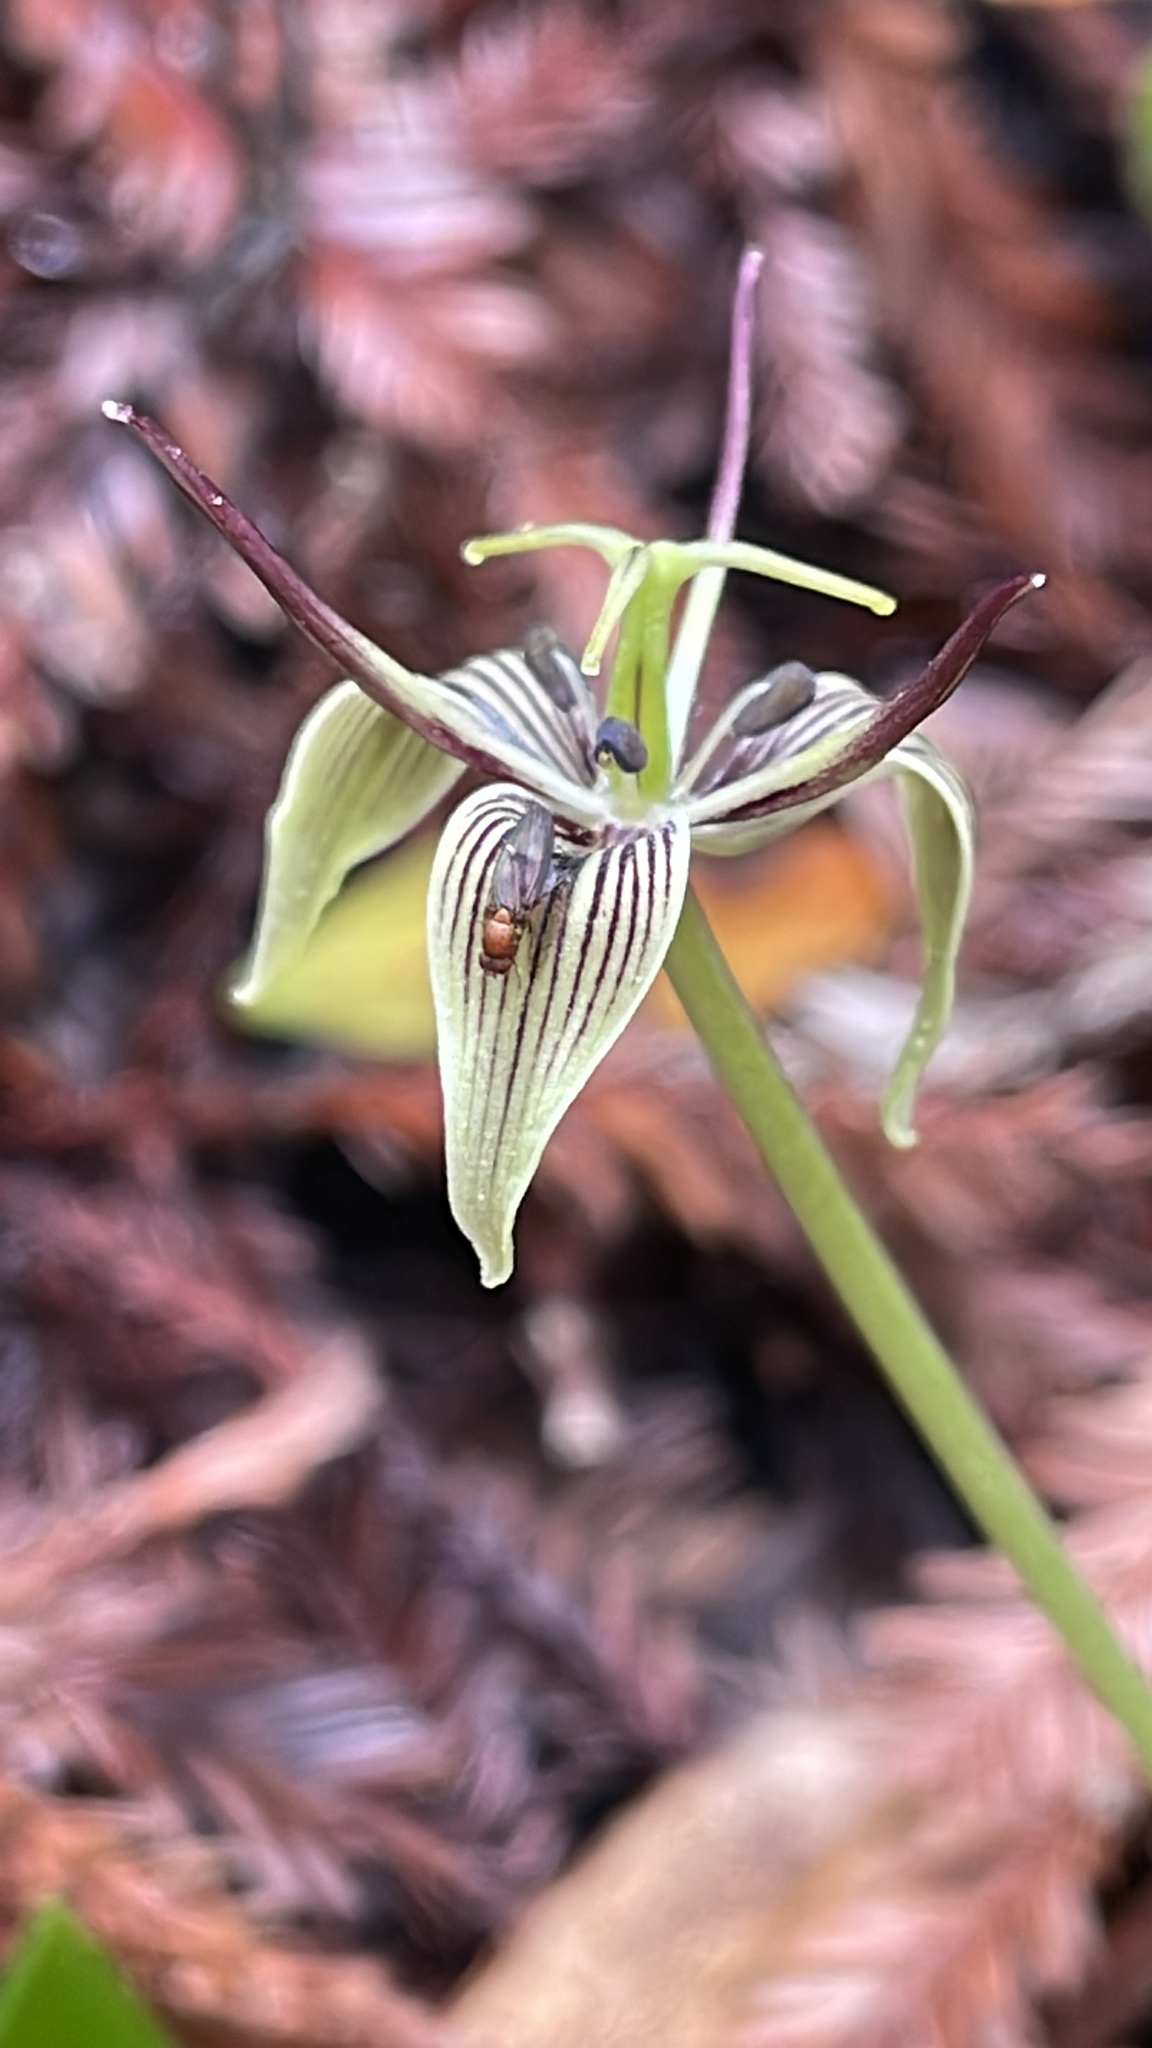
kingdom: Plantae
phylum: Tracheophyta
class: Liliopsida
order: Liliales
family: Liliaceae
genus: Scoliopus
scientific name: Scoliopus bigelovii
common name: Foetid adder's-tongue
